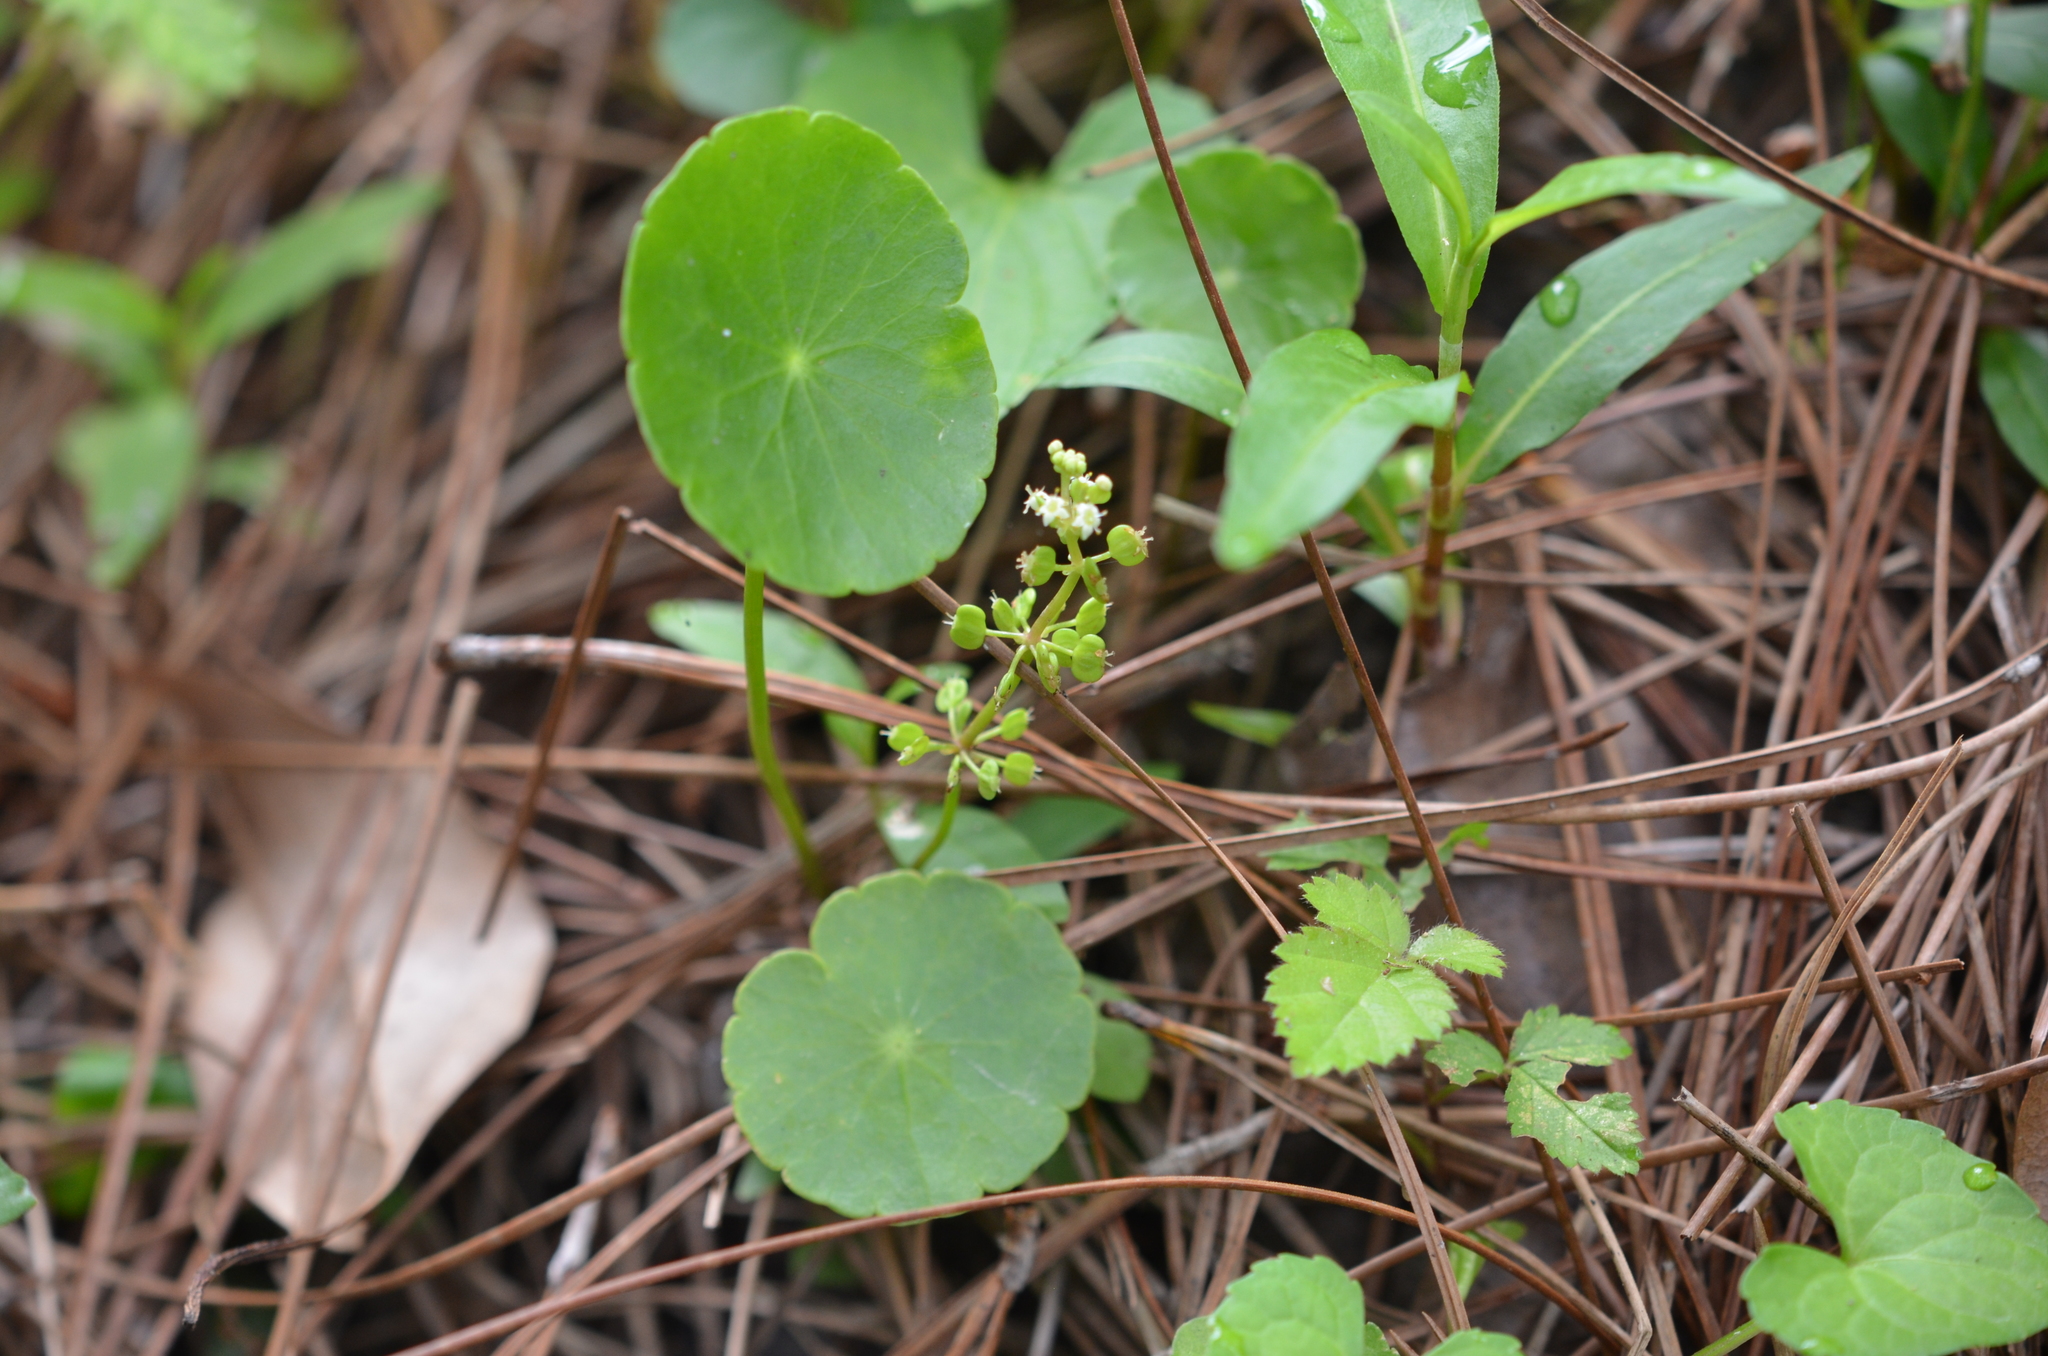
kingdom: Plantae
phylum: Tracheophyta
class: Magnoliopsida
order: Apiales
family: Araliaceae
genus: Hydrocotyle
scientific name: Hydrocotyle verticillata
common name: Whorled marshpennywort
